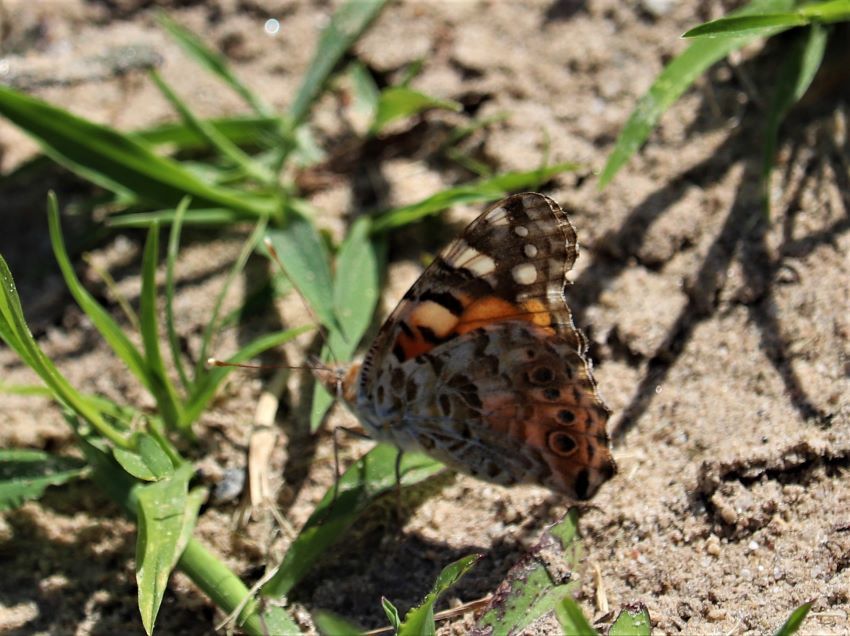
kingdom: Animalia
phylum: Arthropoda
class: Insecta
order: Lepidoptera
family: Nymphalidae
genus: Vanessa
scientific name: Vanessa cardui
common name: Painted lady
